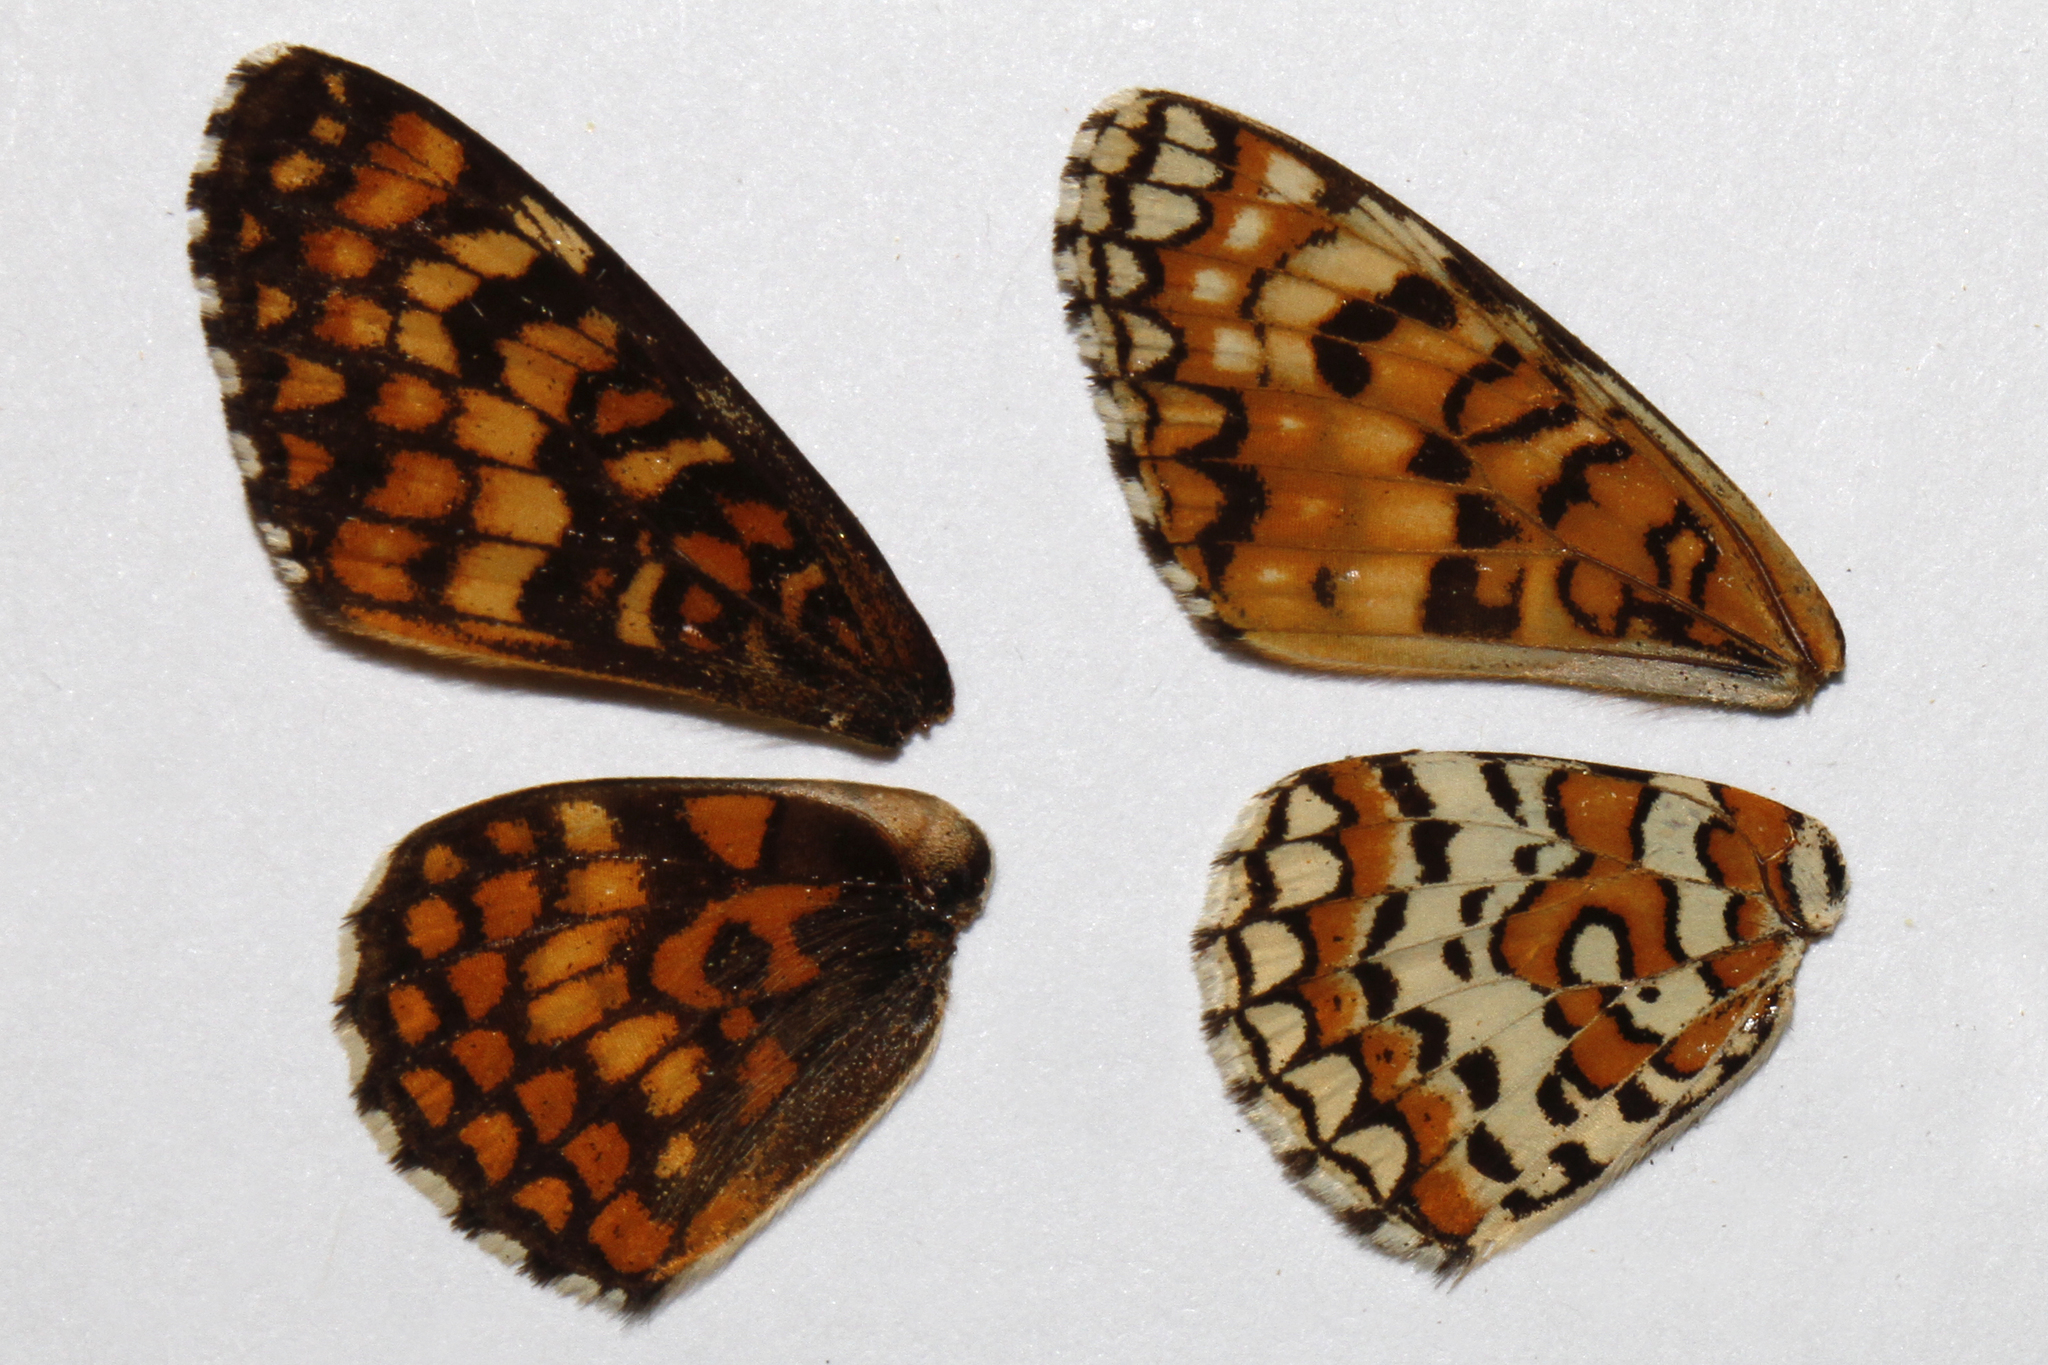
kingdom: Animalia
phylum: Arthropoda
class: Insecta
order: Lepidoptera
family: Nymphalidae
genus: Poladryas
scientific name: Poladryas minuta
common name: Dotted checkerspot
